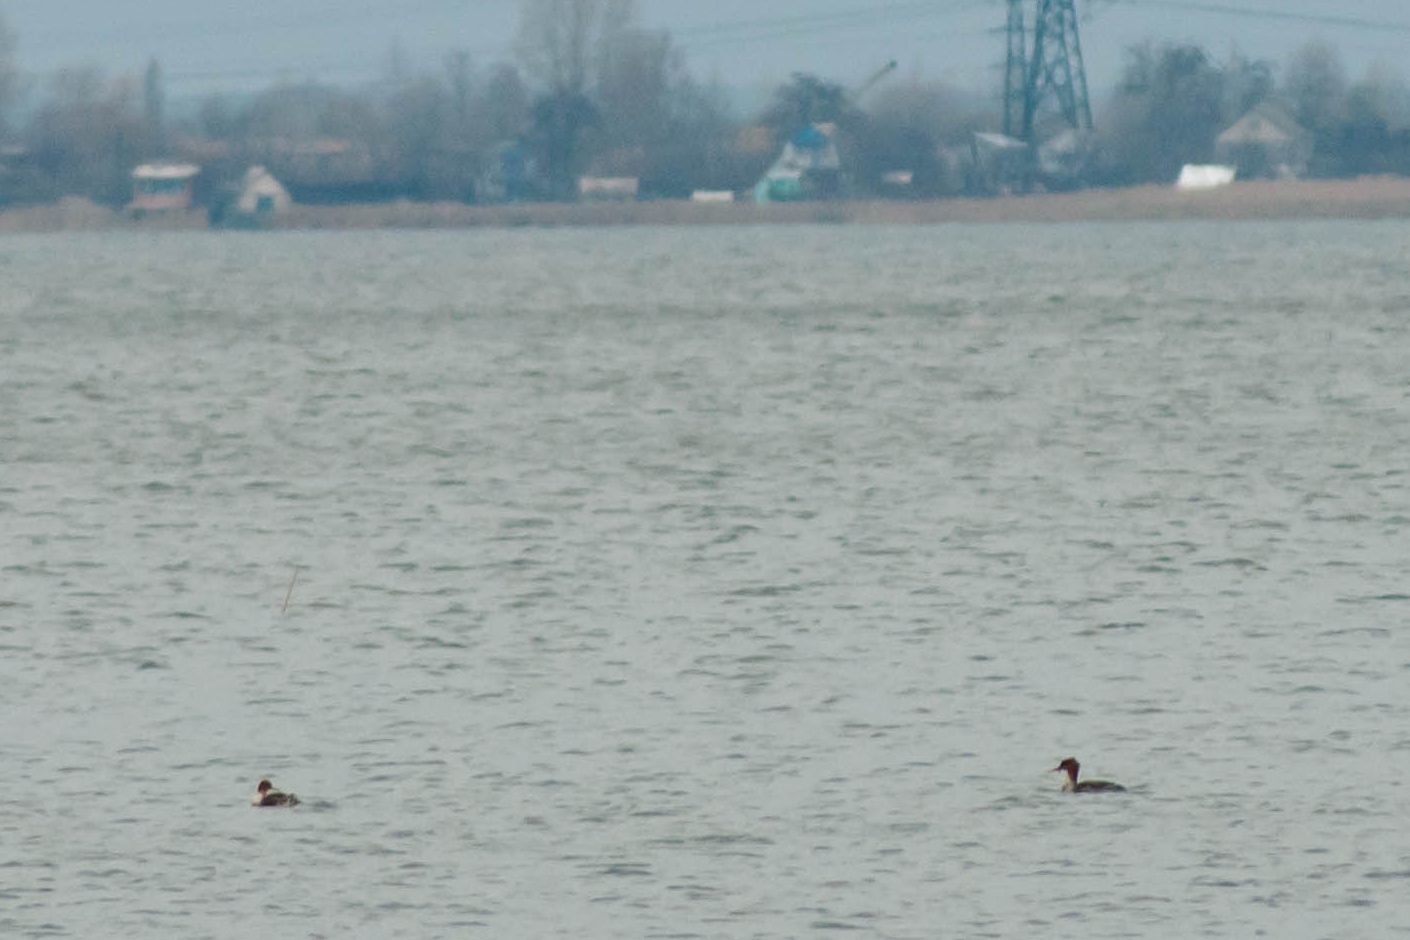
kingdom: Animalia
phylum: Chordata
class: Aves
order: Anseriformes
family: Anatidae
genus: Mergus
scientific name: Mergus merganser
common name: Common merganser
